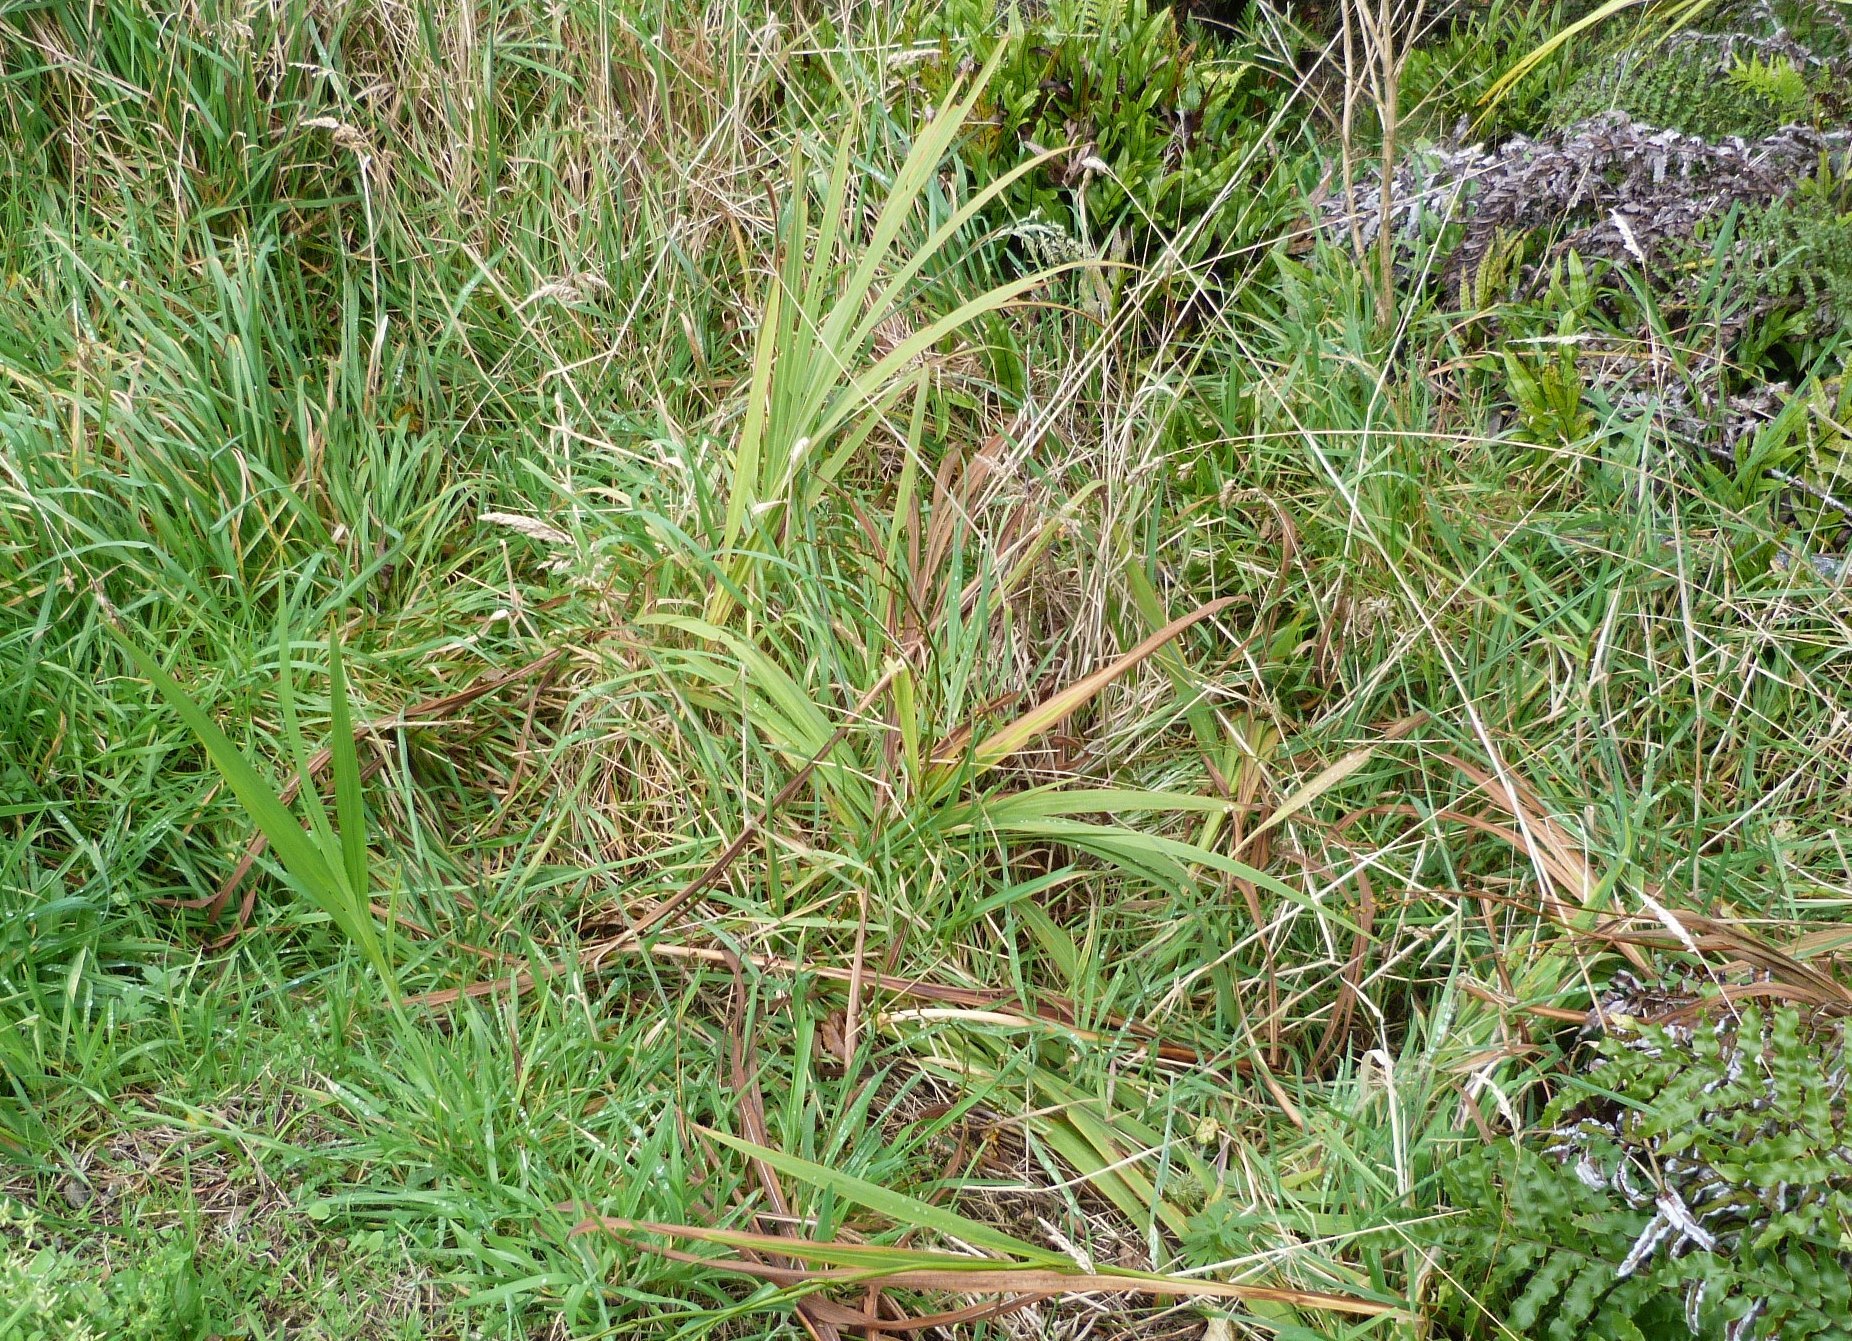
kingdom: Plantae
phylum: Tracheophyta
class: Liliopsida
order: Asparagales
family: Iridaceae
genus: Crocosmia
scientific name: Crocosmia crocosmiiflora
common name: Montbretia
